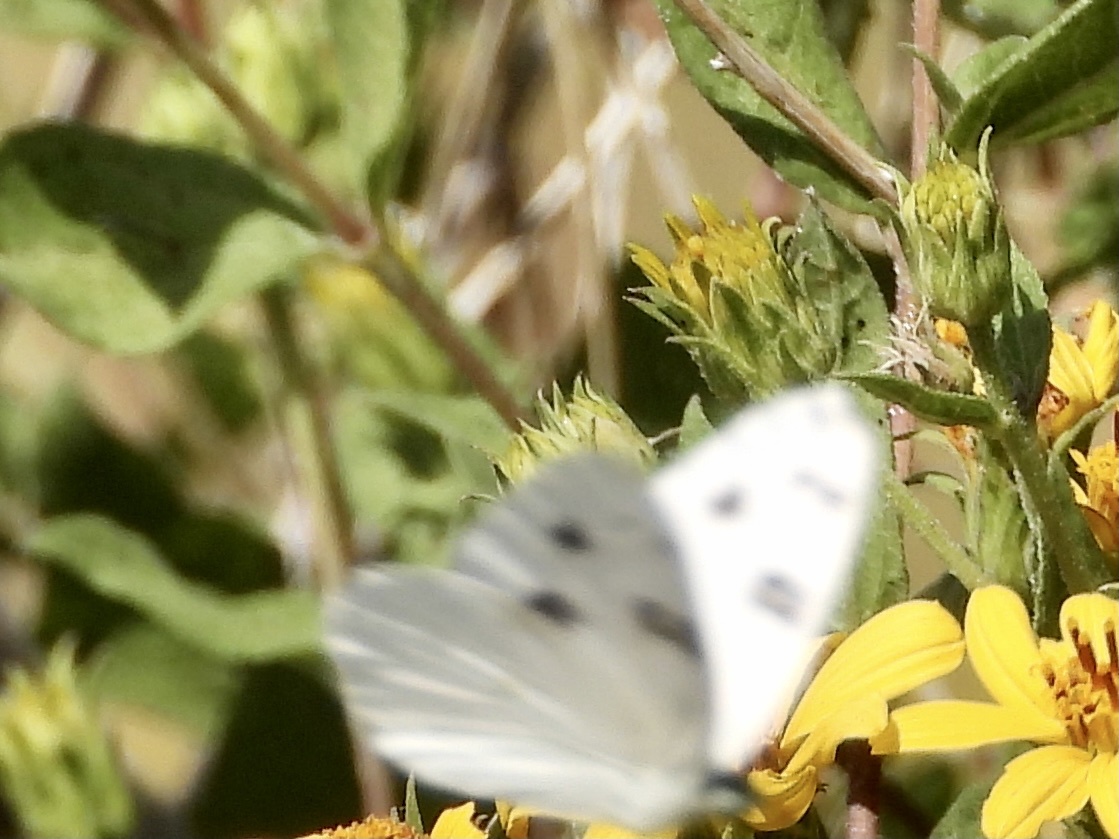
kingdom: Animalia
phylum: Arthropoda
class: Insecta
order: Lepidoptera
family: Pieridae
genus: Pontia
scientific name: Pontia protodice
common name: Checkered white
